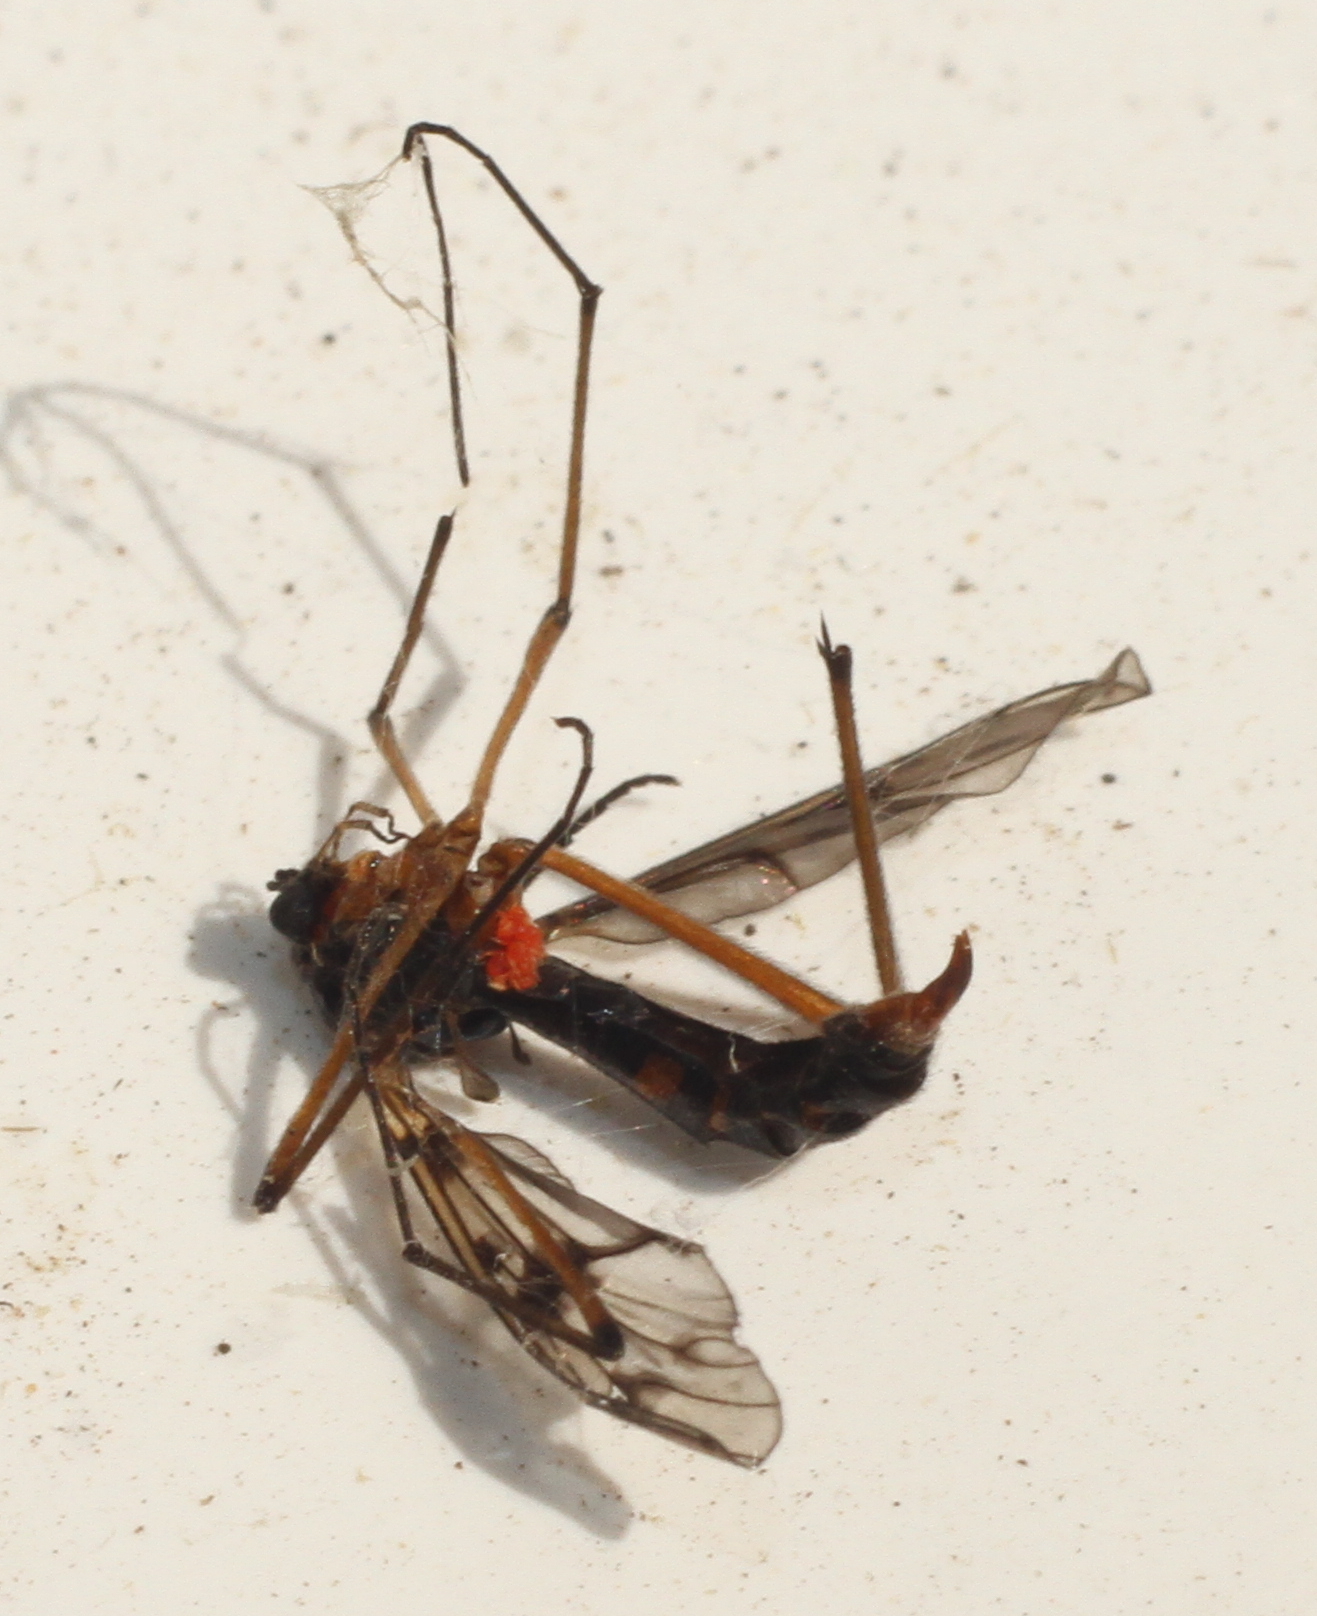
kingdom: Animalia
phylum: Arthropoda
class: Insecta
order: Diptera
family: Ptychopteridae
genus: Ptychoptera
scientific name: Ptychoptera contaminata
